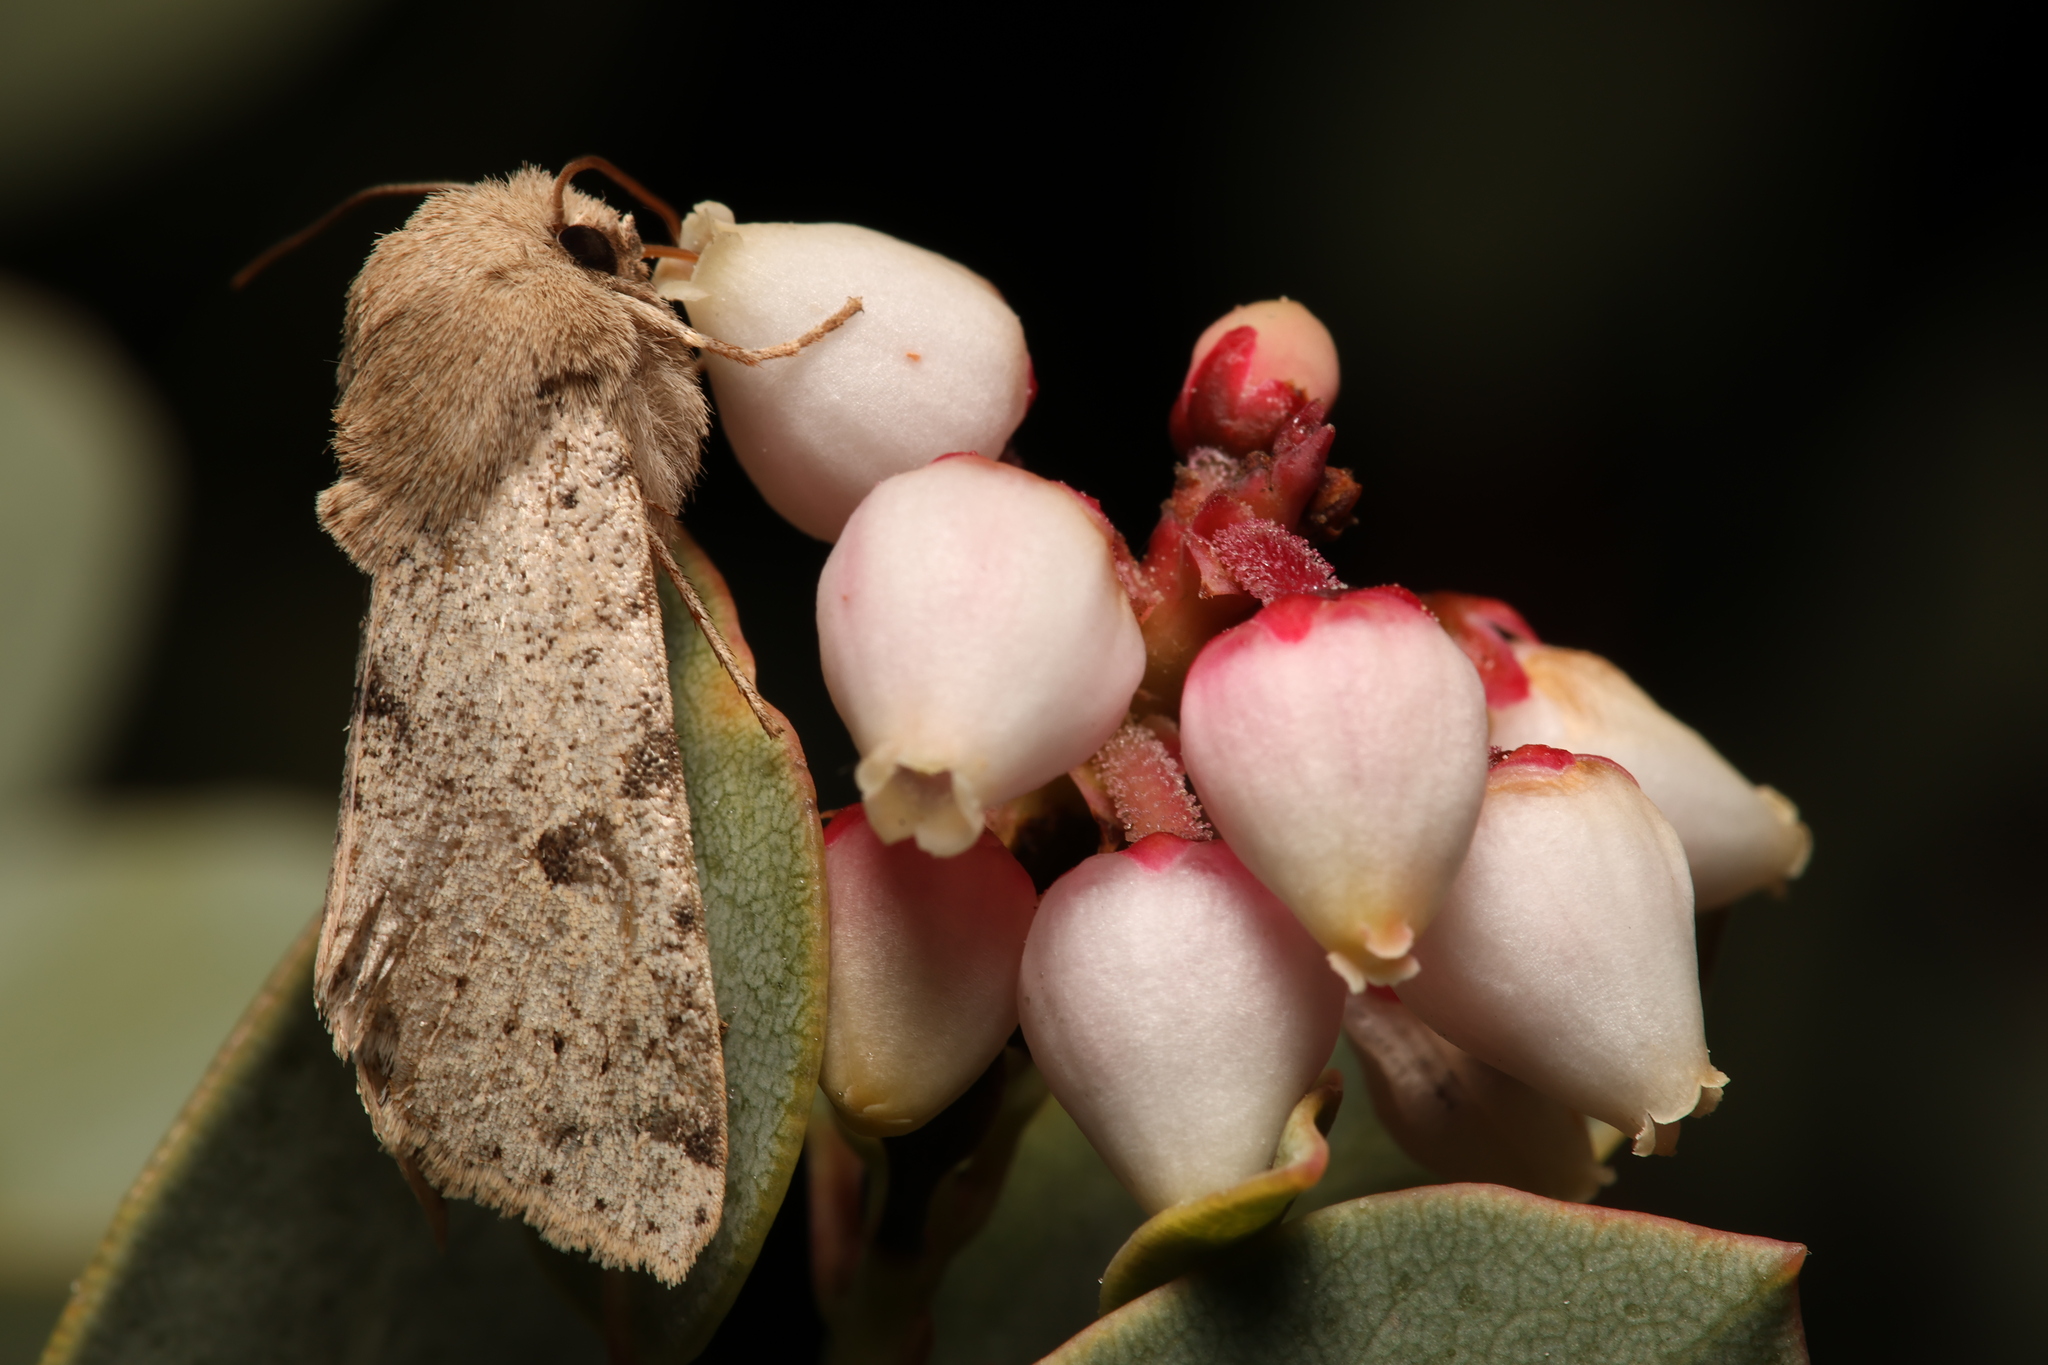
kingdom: Animalia
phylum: Arthropoda
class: Insecta
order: Lepidoptera
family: Noctuidae
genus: Orthosia
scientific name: Orthosia behrensiana
